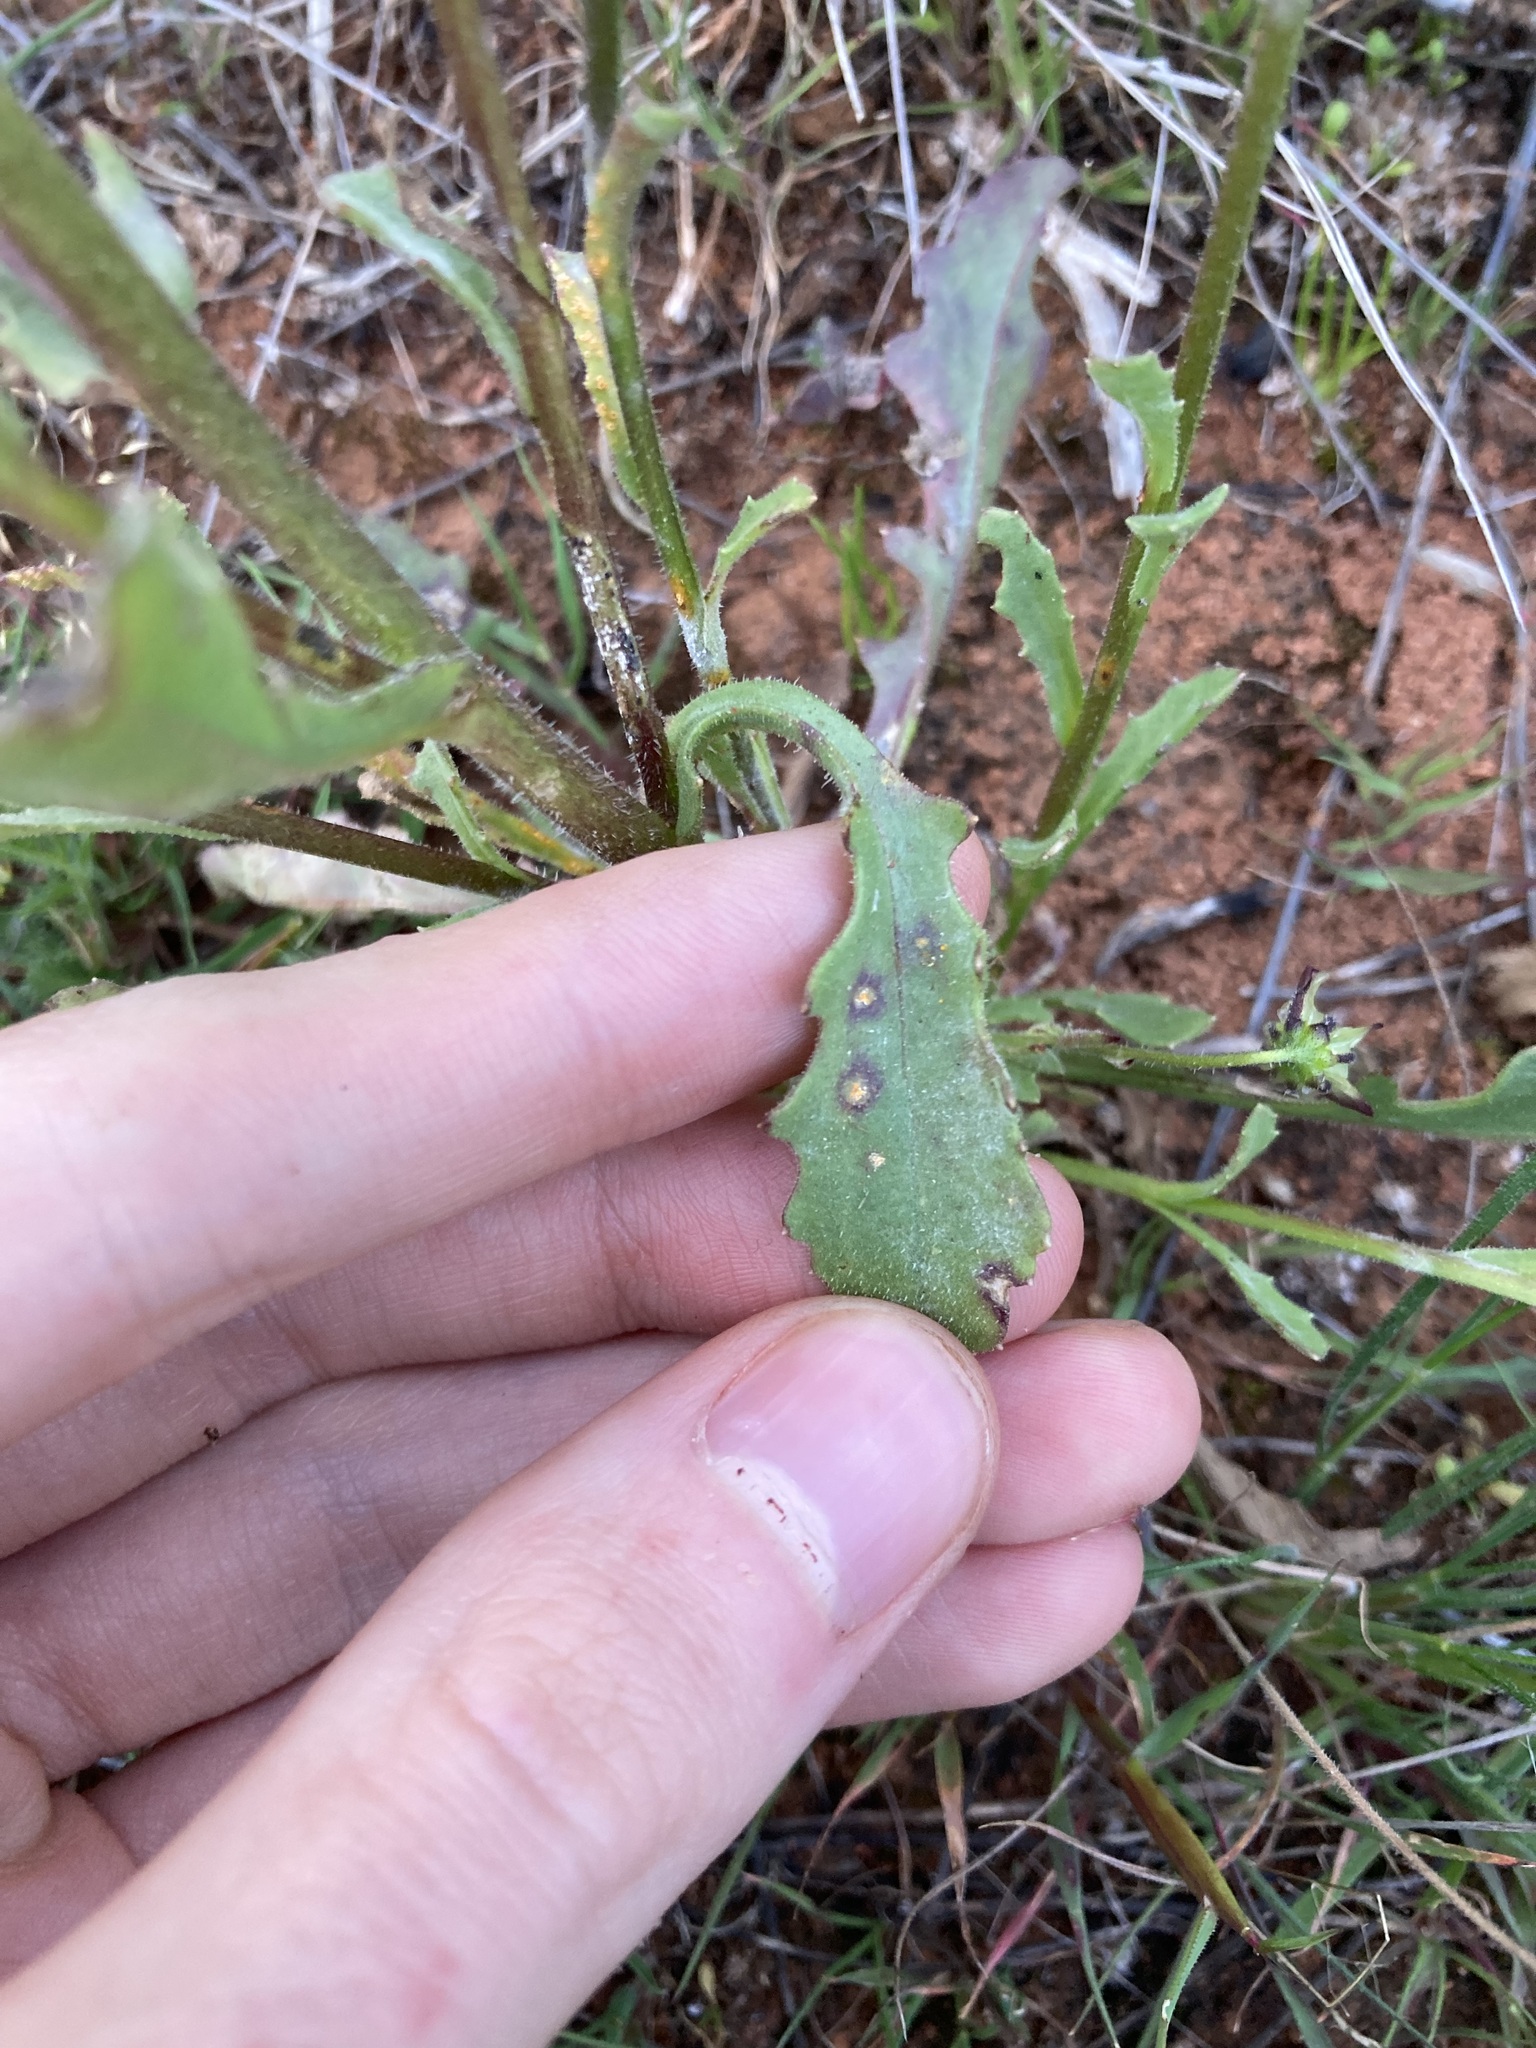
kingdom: Plantae
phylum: Tracheophyta
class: Magnoliopsida
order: Asterales
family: Asteraceae
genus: Osteospermum
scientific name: Osteospermum monstrosum
